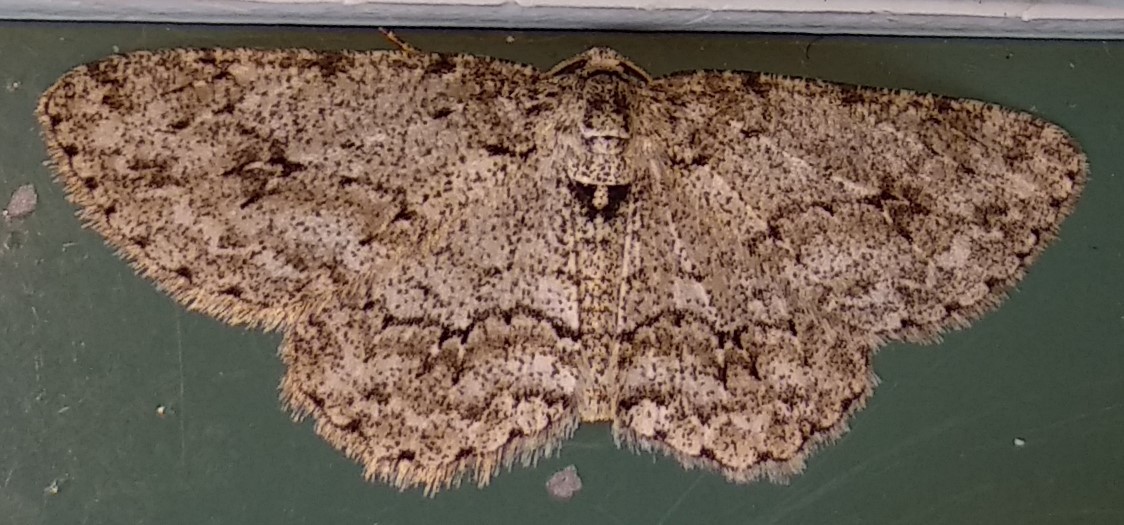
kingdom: Animalia
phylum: Arthropoda
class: Insecta
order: Lepidoptera
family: Geometridae
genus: Ectropis
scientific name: Ectropis crepuscularia
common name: Engrailed
